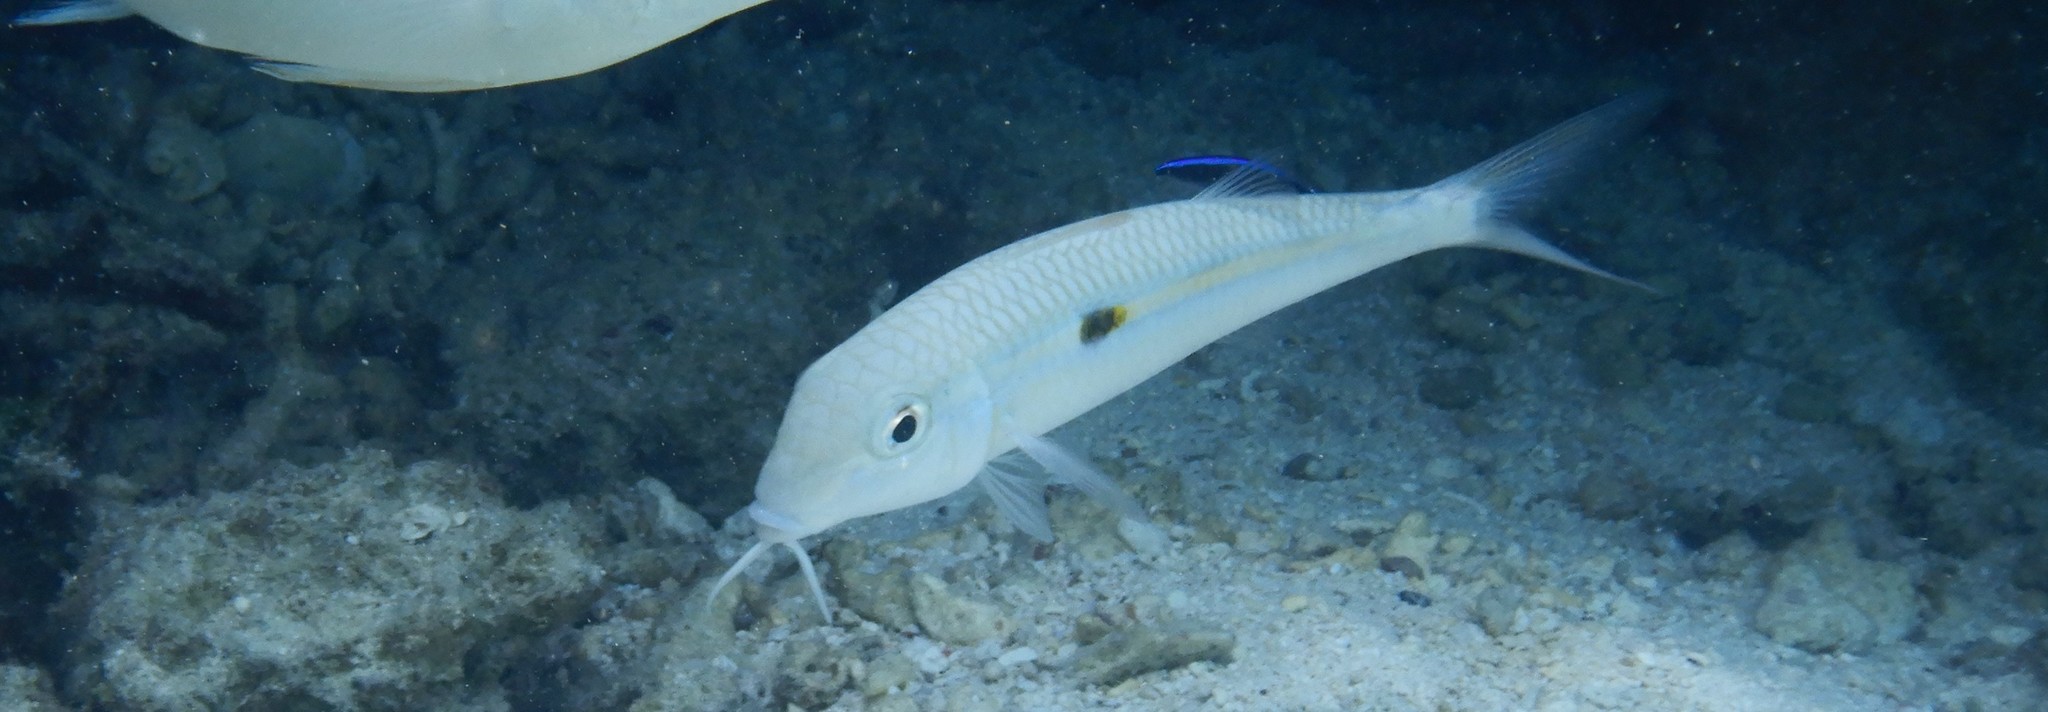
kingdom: Animalia
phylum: Chordata
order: Perciformes
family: Mullidae
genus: Mulloidichthys
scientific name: Mulloidichthys flavolineatus
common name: Yellowstripe goatfish
